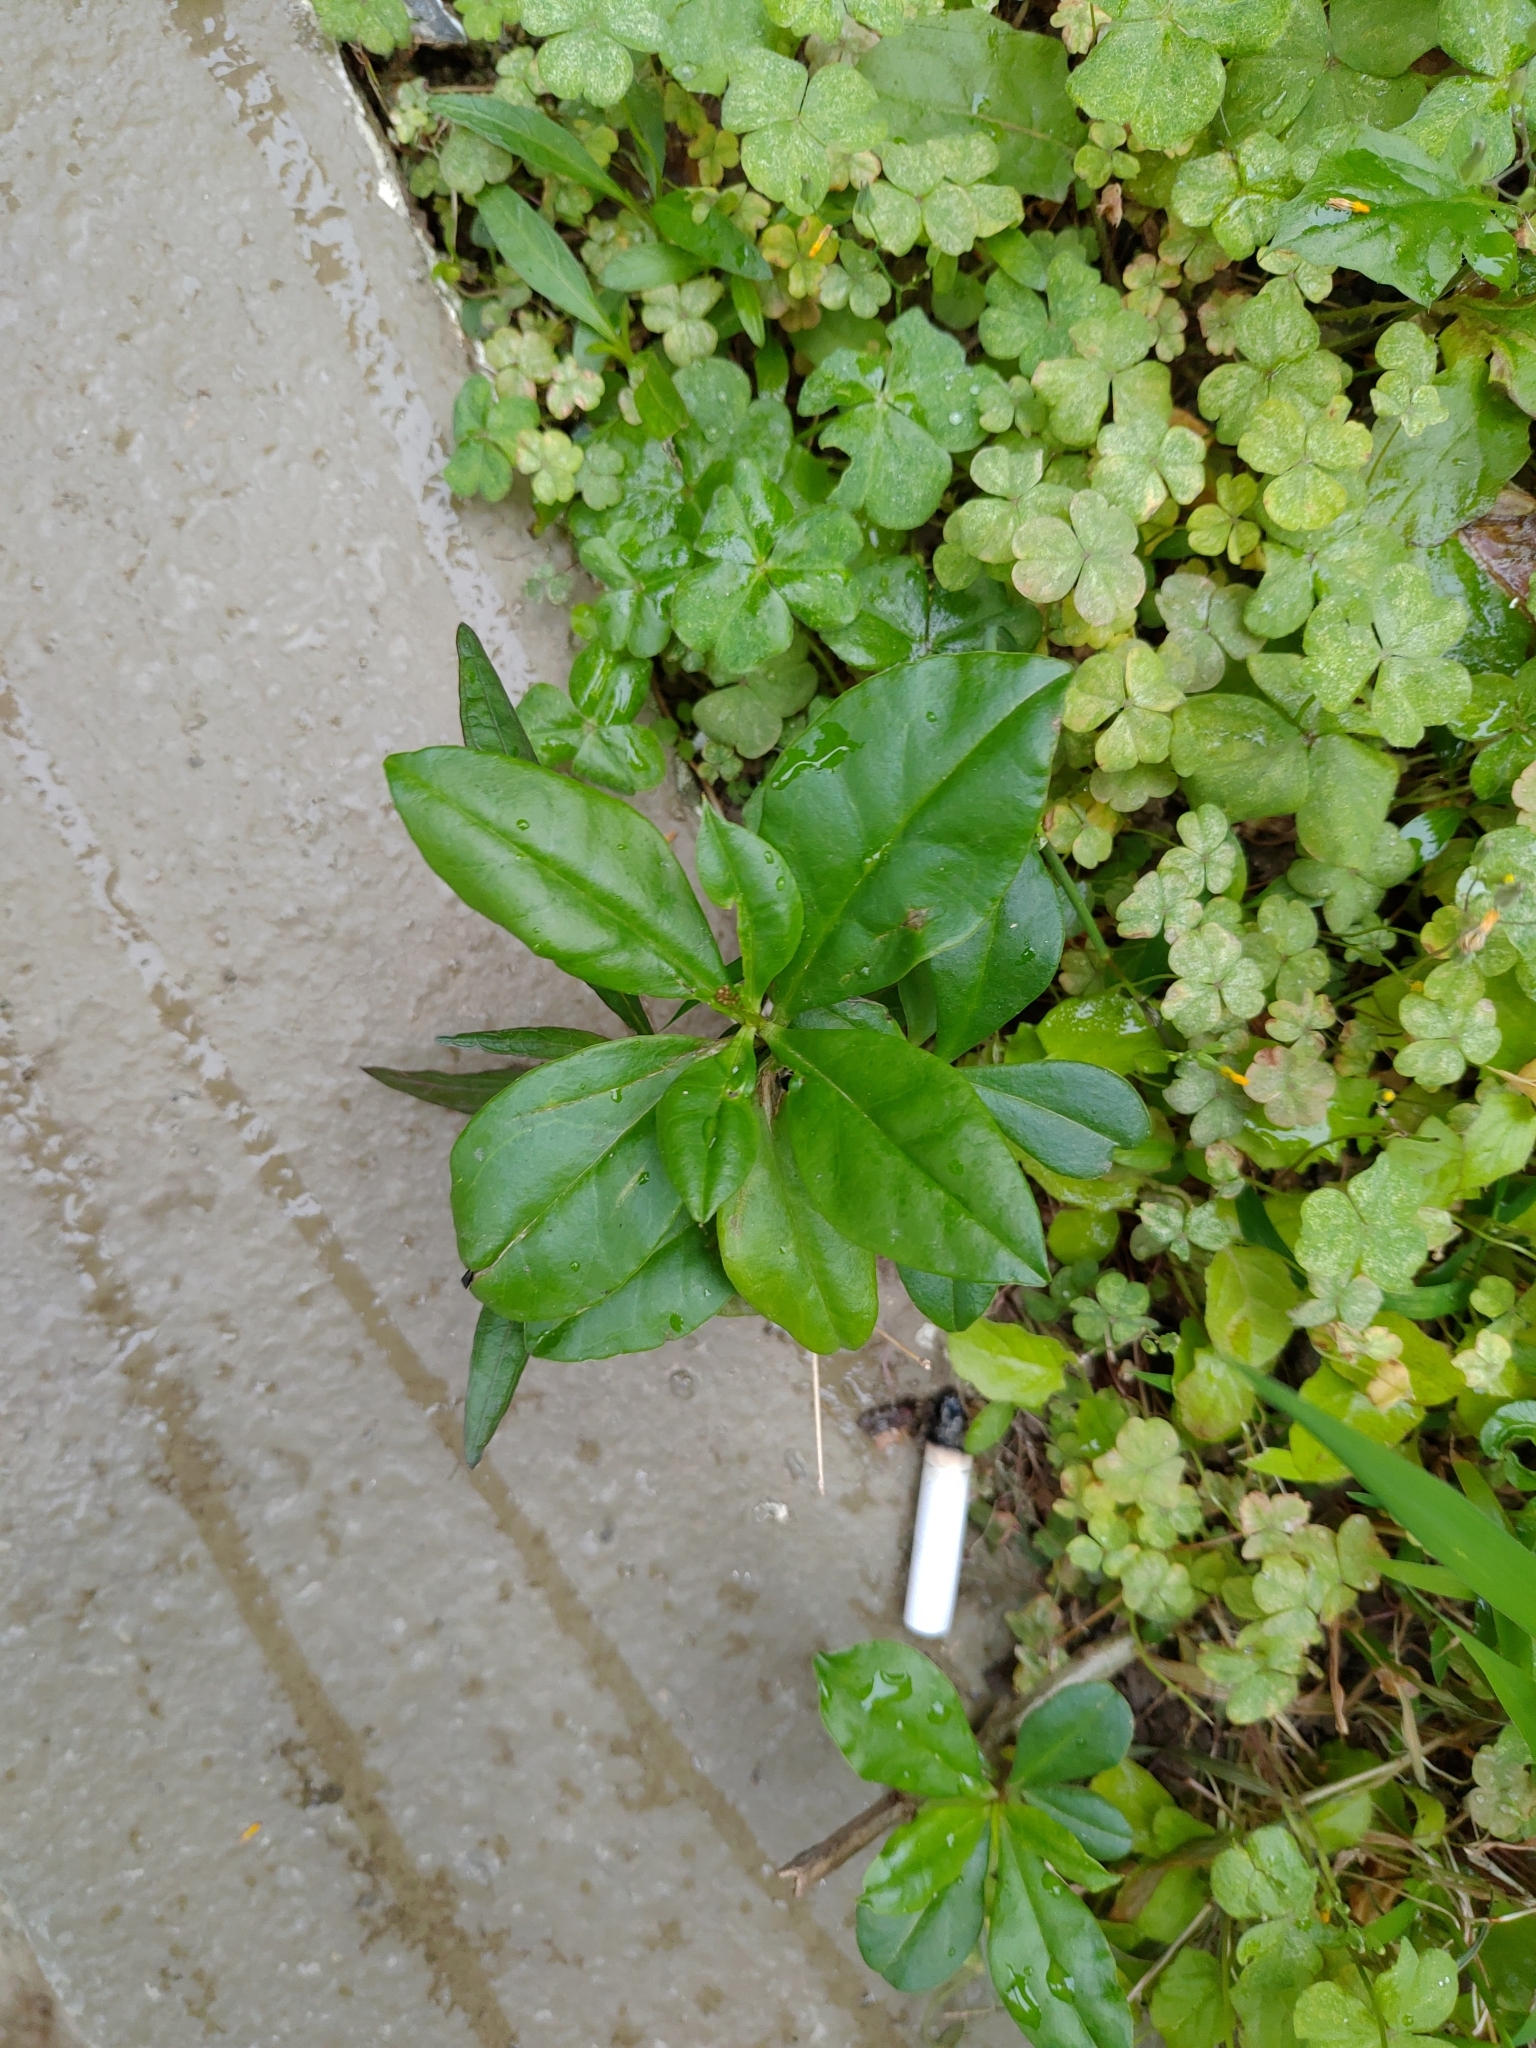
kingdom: Plantae
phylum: Tracheophyta
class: Magnoliopsida
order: Caryophyllales
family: Talinaceae
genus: Talinum
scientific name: Talinum paniculatum
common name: Jewels of opar
